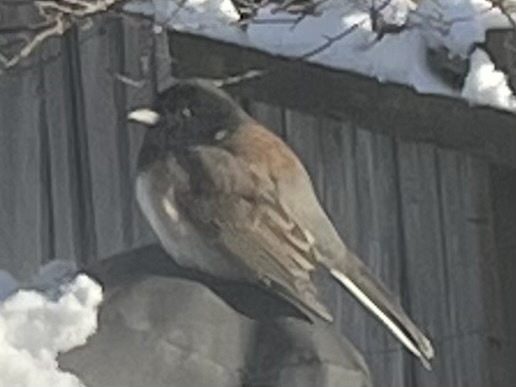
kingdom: Animalia
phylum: Chordata
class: Aves
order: Passeriformes
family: Passerellidae
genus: Junco
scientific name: Junco hyemalis
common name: Dark-eyed junco
